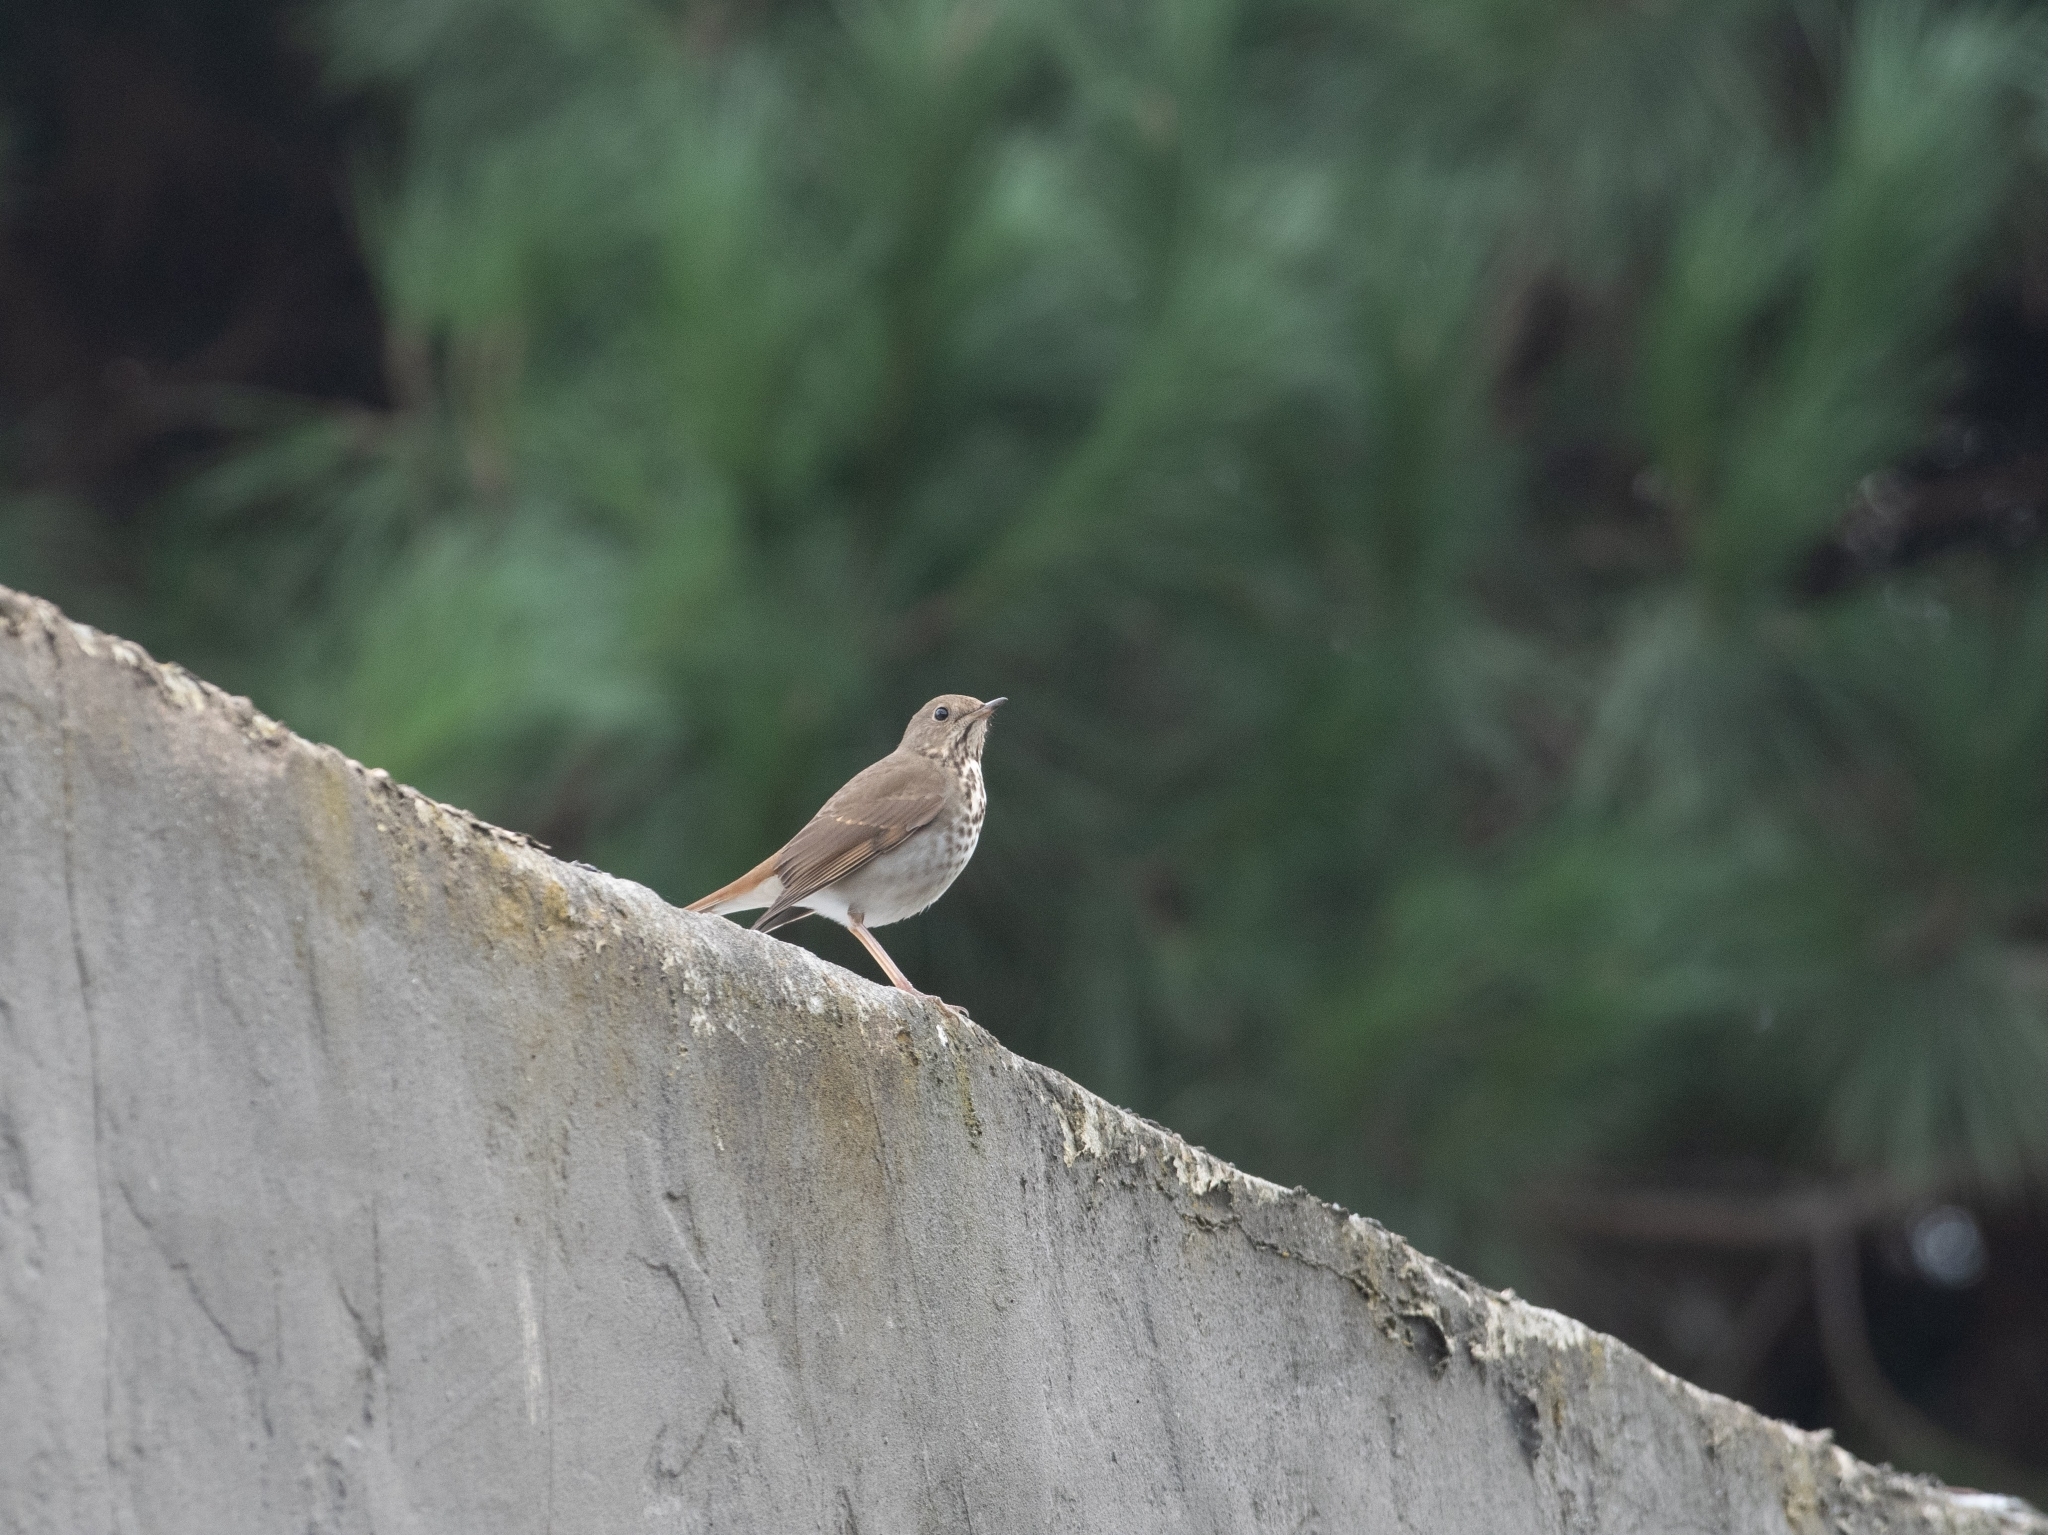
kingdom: Animalia
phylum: Chordata
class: Aves
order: Passeriformes
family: Turdidae
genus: Catharus
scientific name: Catharus guttatus
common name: Hermit thrush
